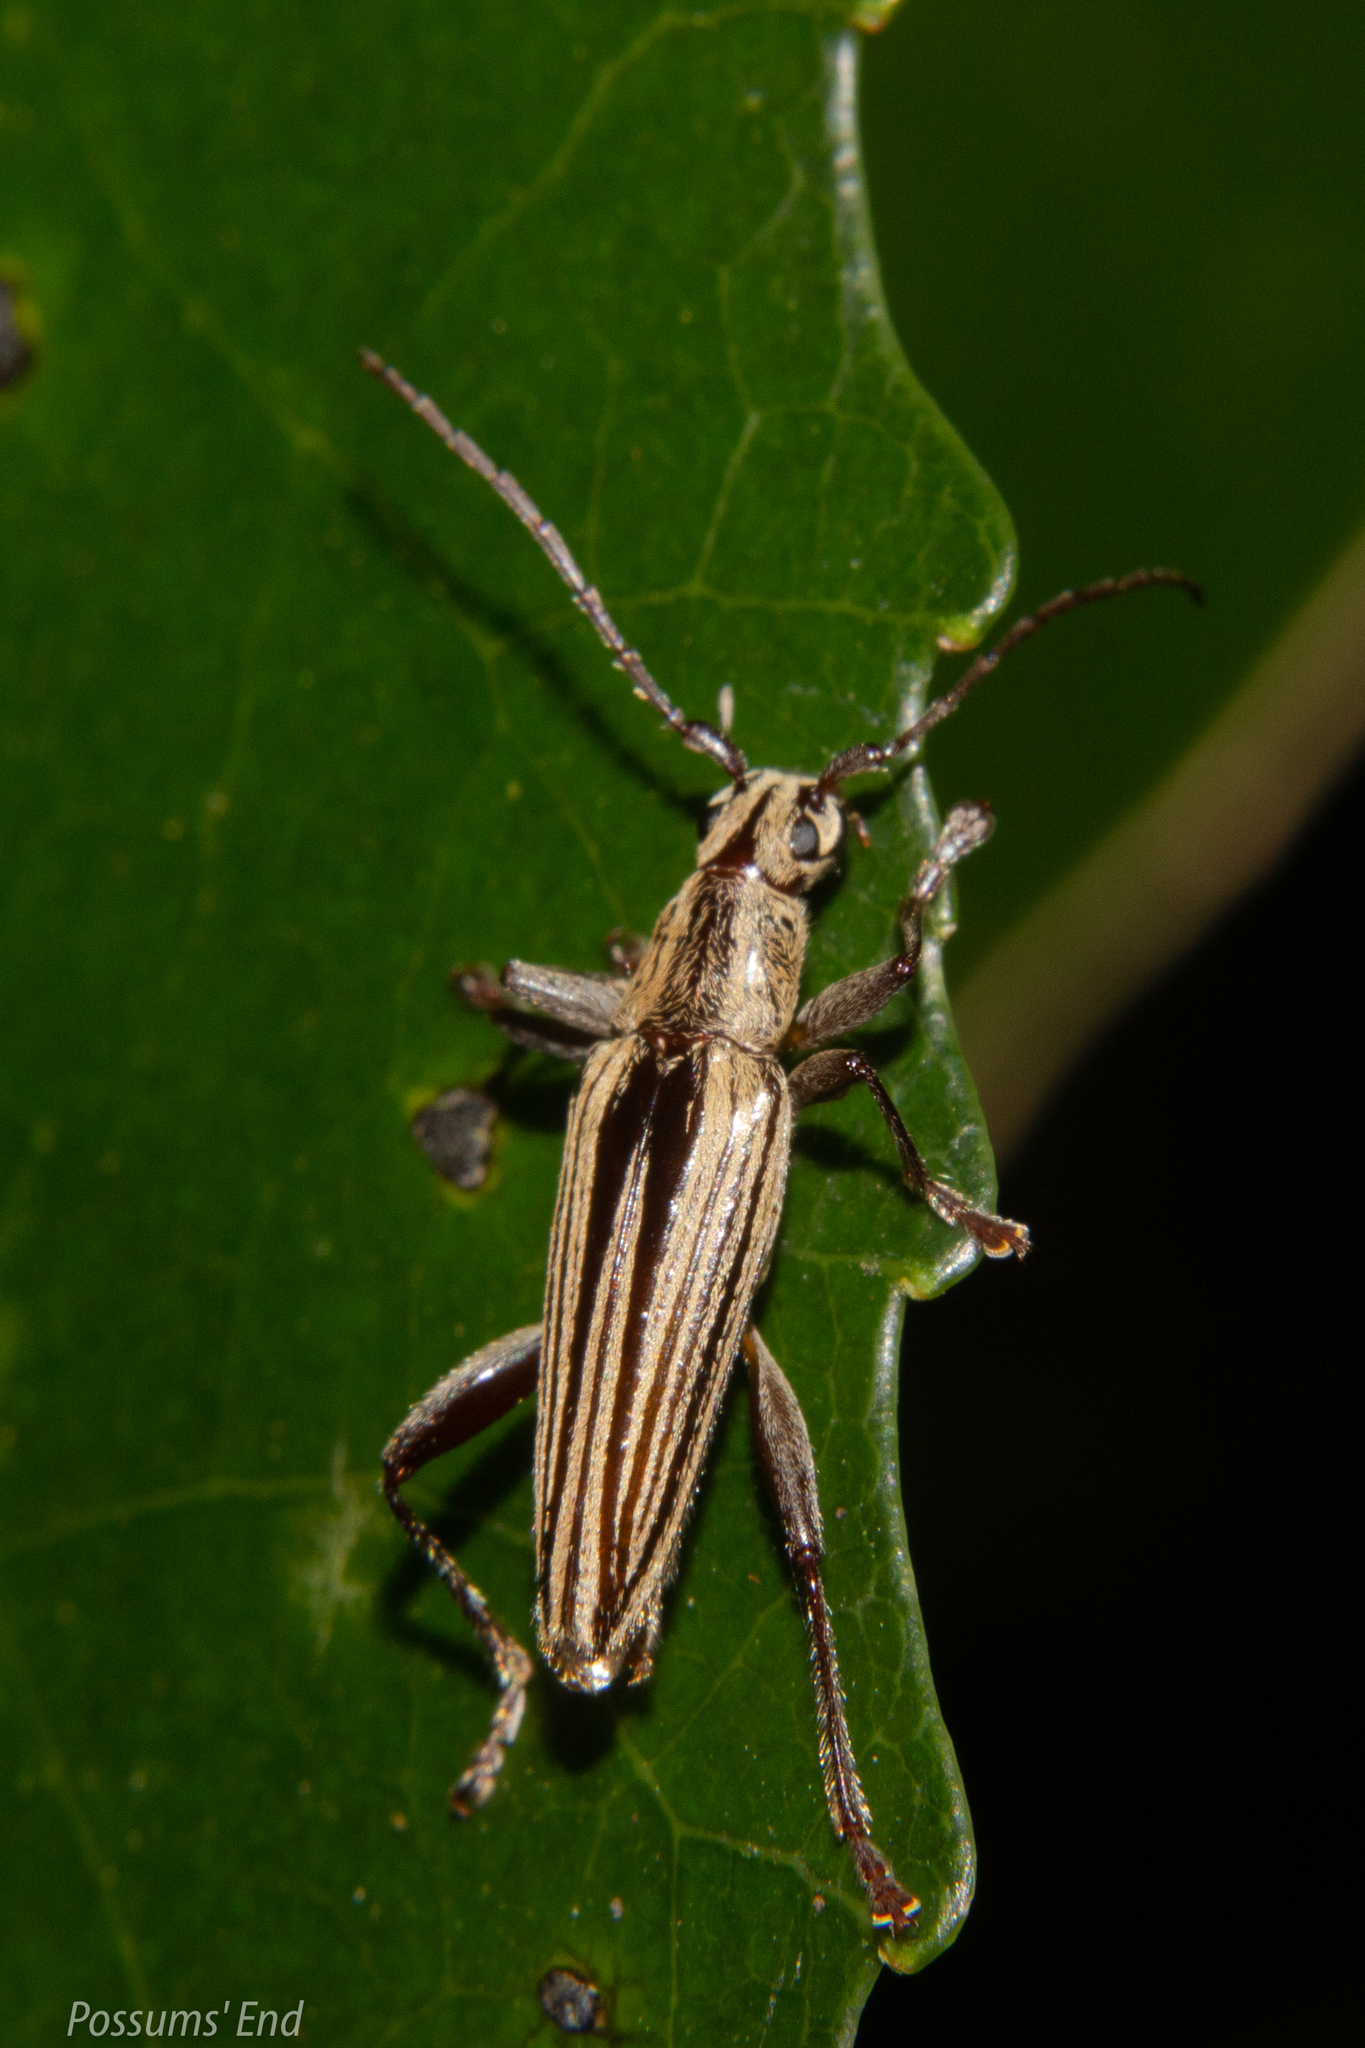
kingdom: Animalia
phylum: Arthropoda
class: Insecta
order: Coleoptera
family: Cerambycidae
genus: Coptomma
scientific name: Coptomma sulcatum
